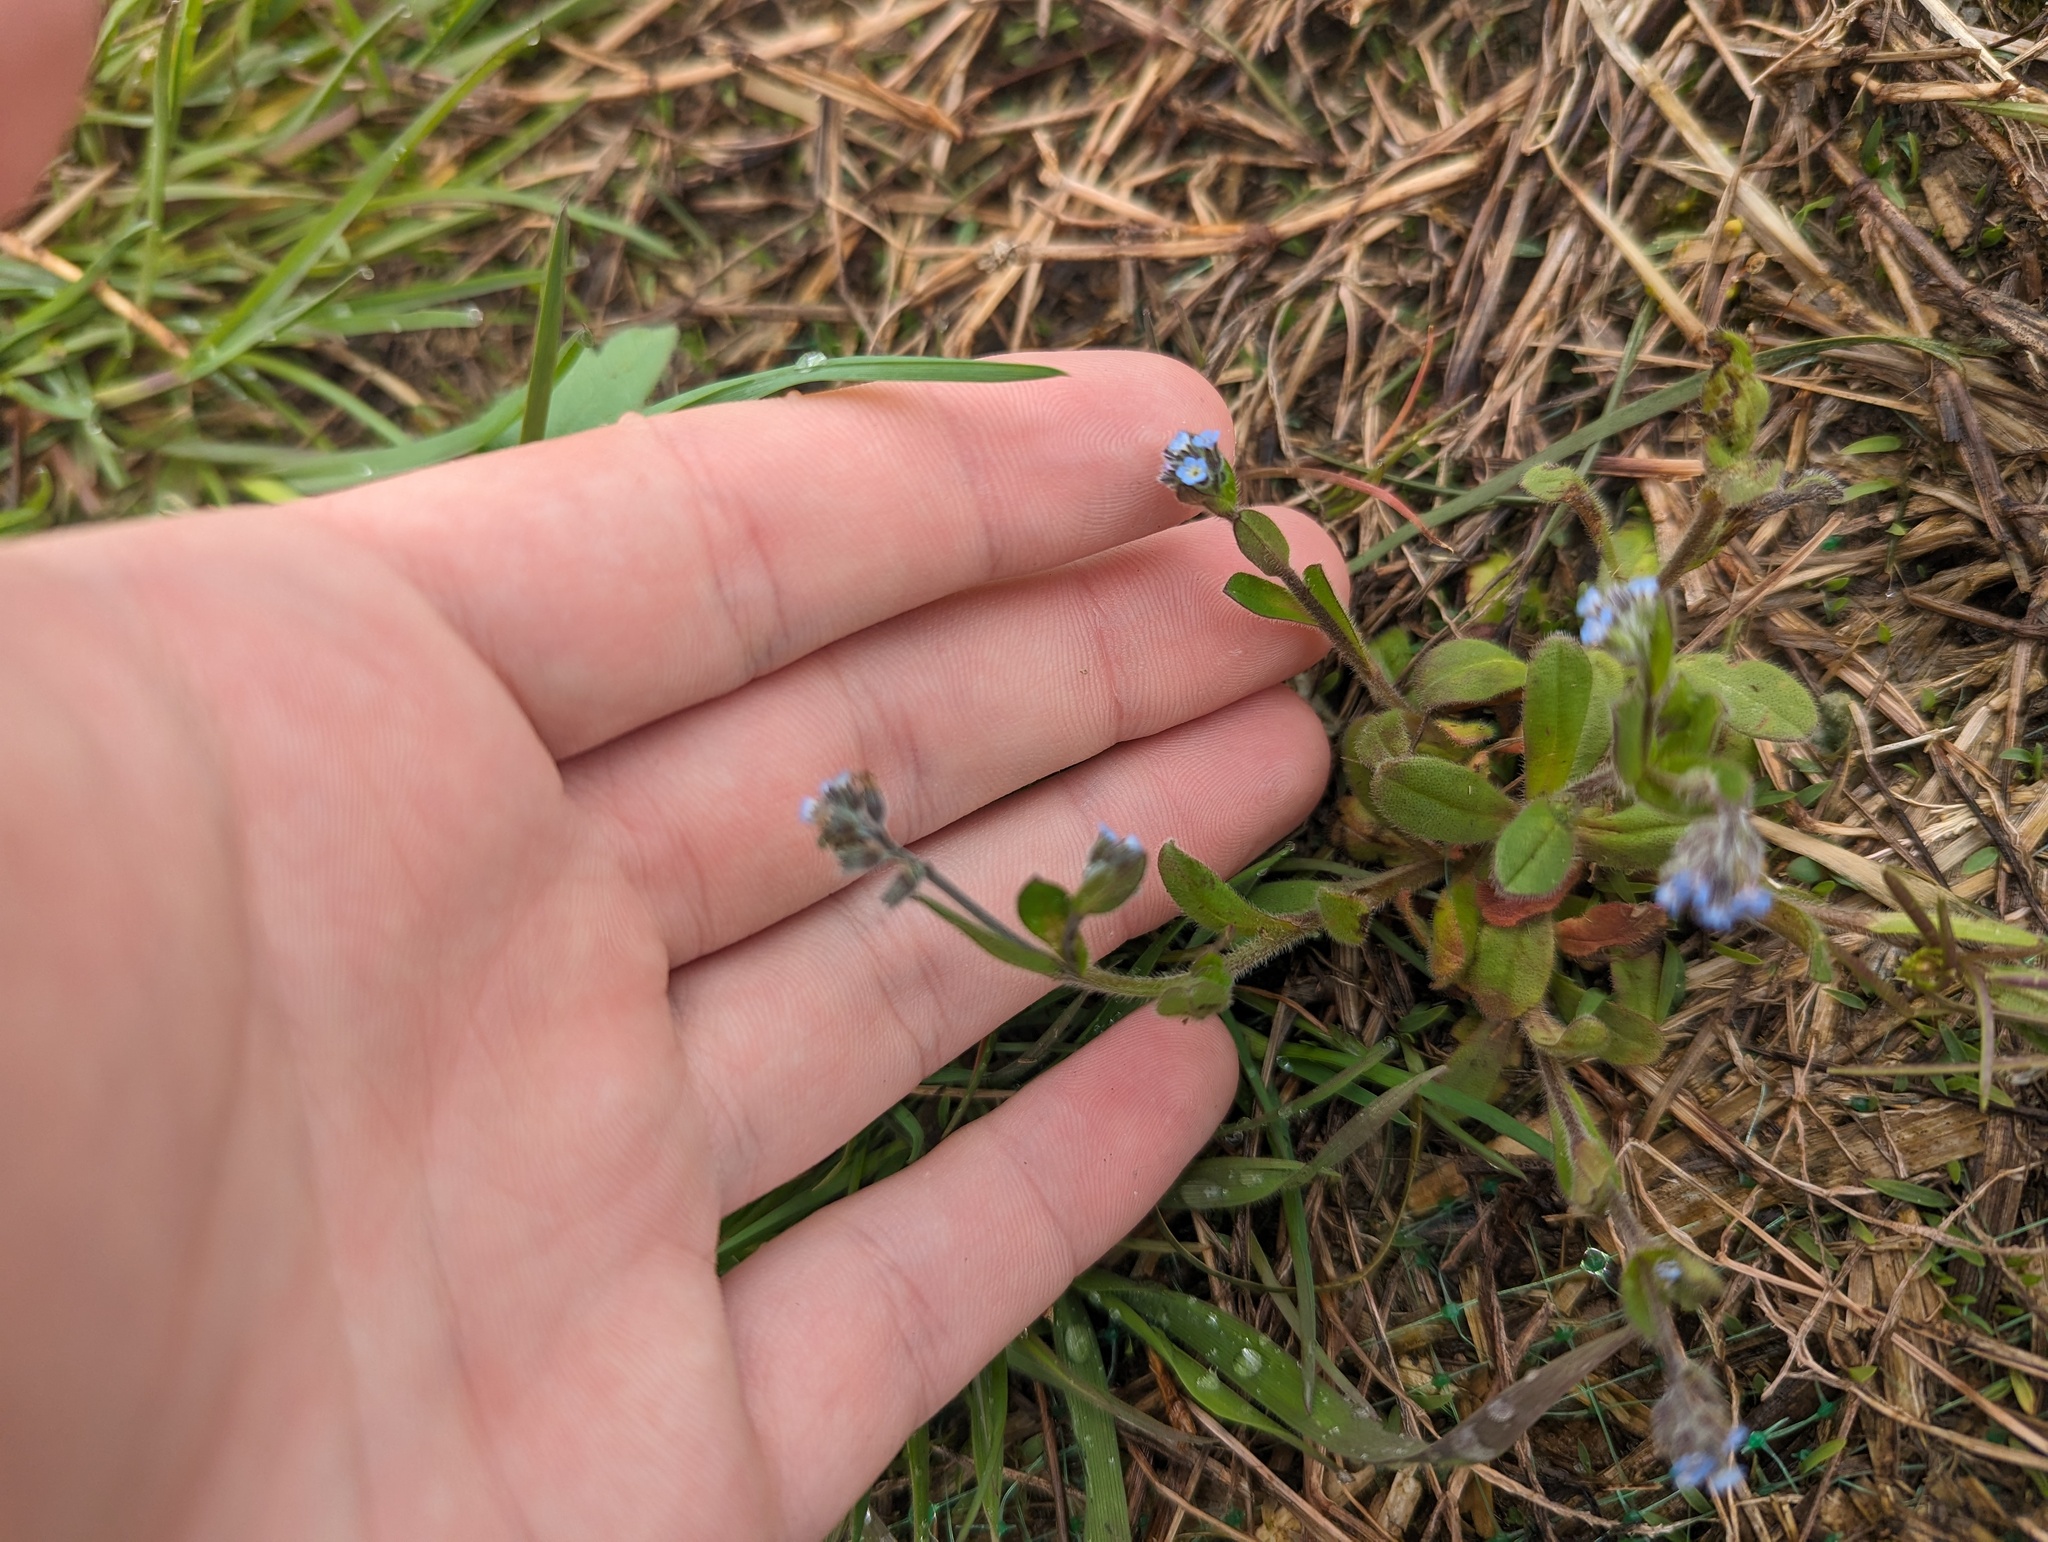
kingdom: Plantae
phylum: Tracheophyta
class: Magnoliopsida
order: Boraginales
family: Boraginaceae
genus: Myosotis
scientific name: Myosotis verna
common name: Early forget-me-not
